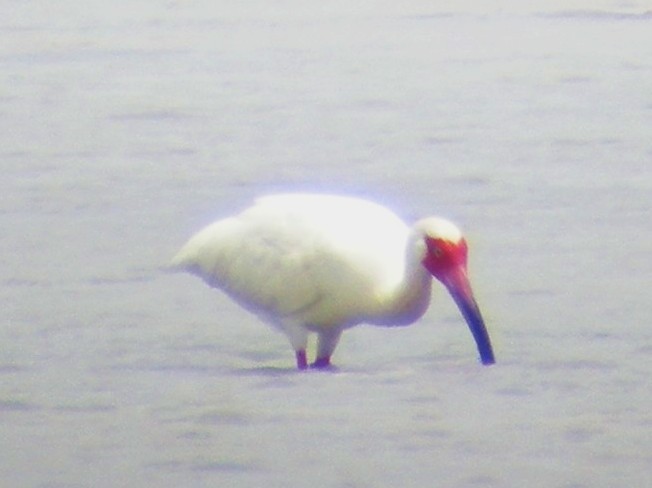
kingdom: Animalia
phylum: Chordata
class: Aves
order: Pelecaniformes
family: Threskiornithidae
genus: Eudocimus
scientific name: Eudocimus albus
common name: White ibis
